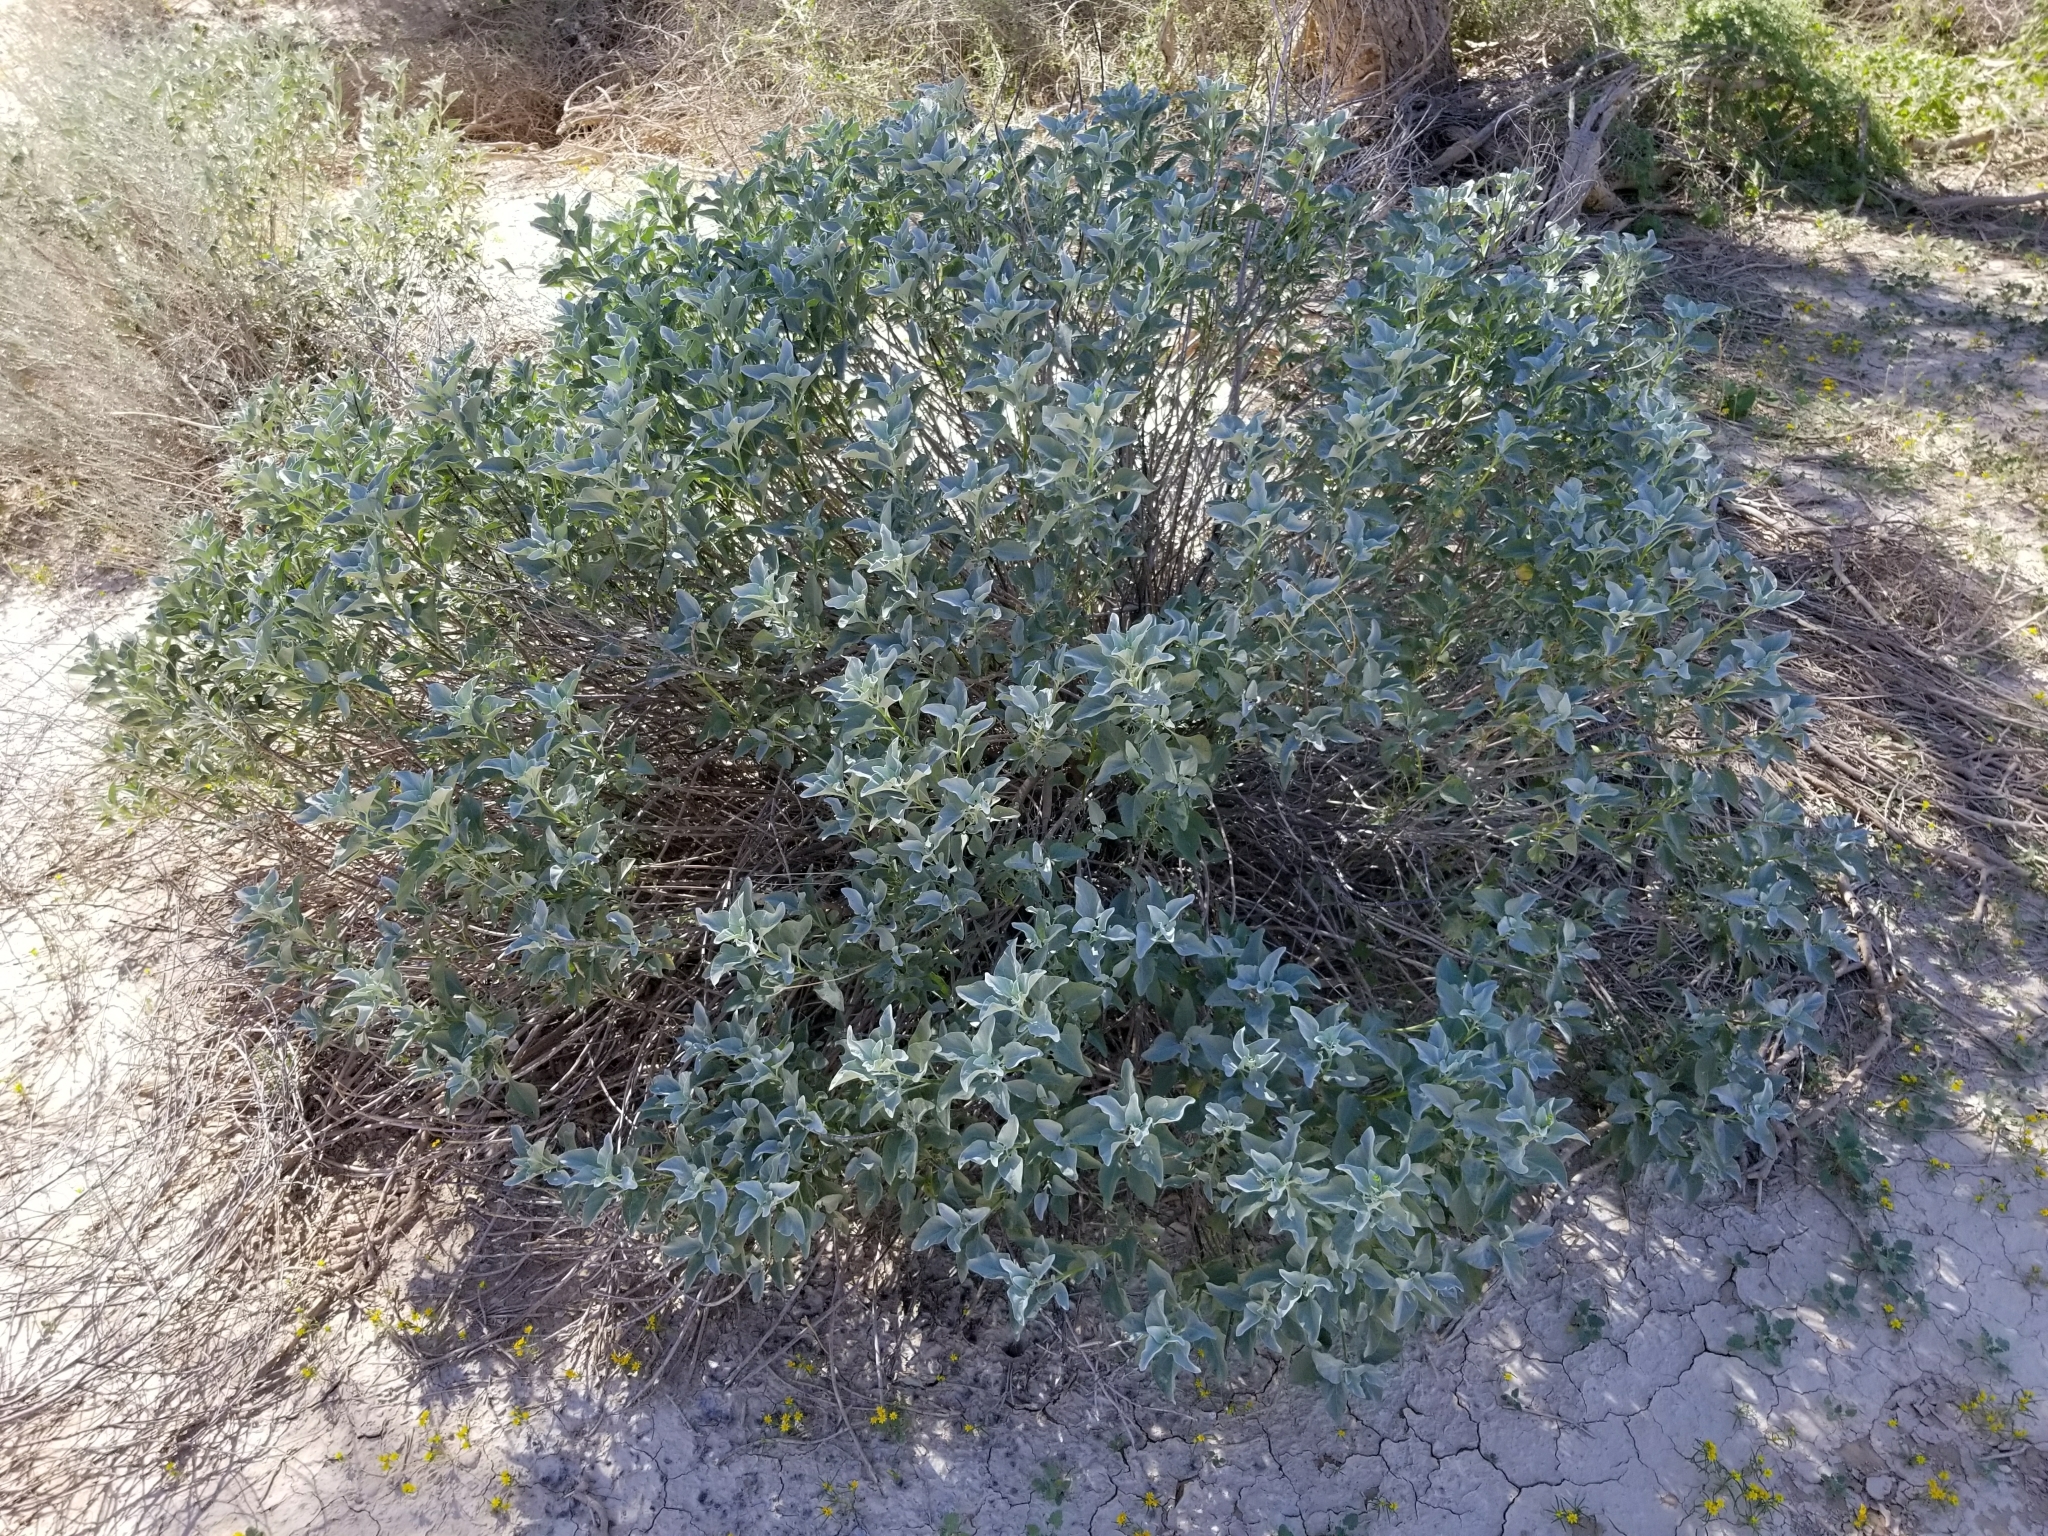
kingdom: Plantae
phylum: Tracheophyta
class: Magnoliopsida
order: Asterales
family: Asteraceae
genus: Encelia
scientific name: Encelia farinosa
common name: Brittlebush
